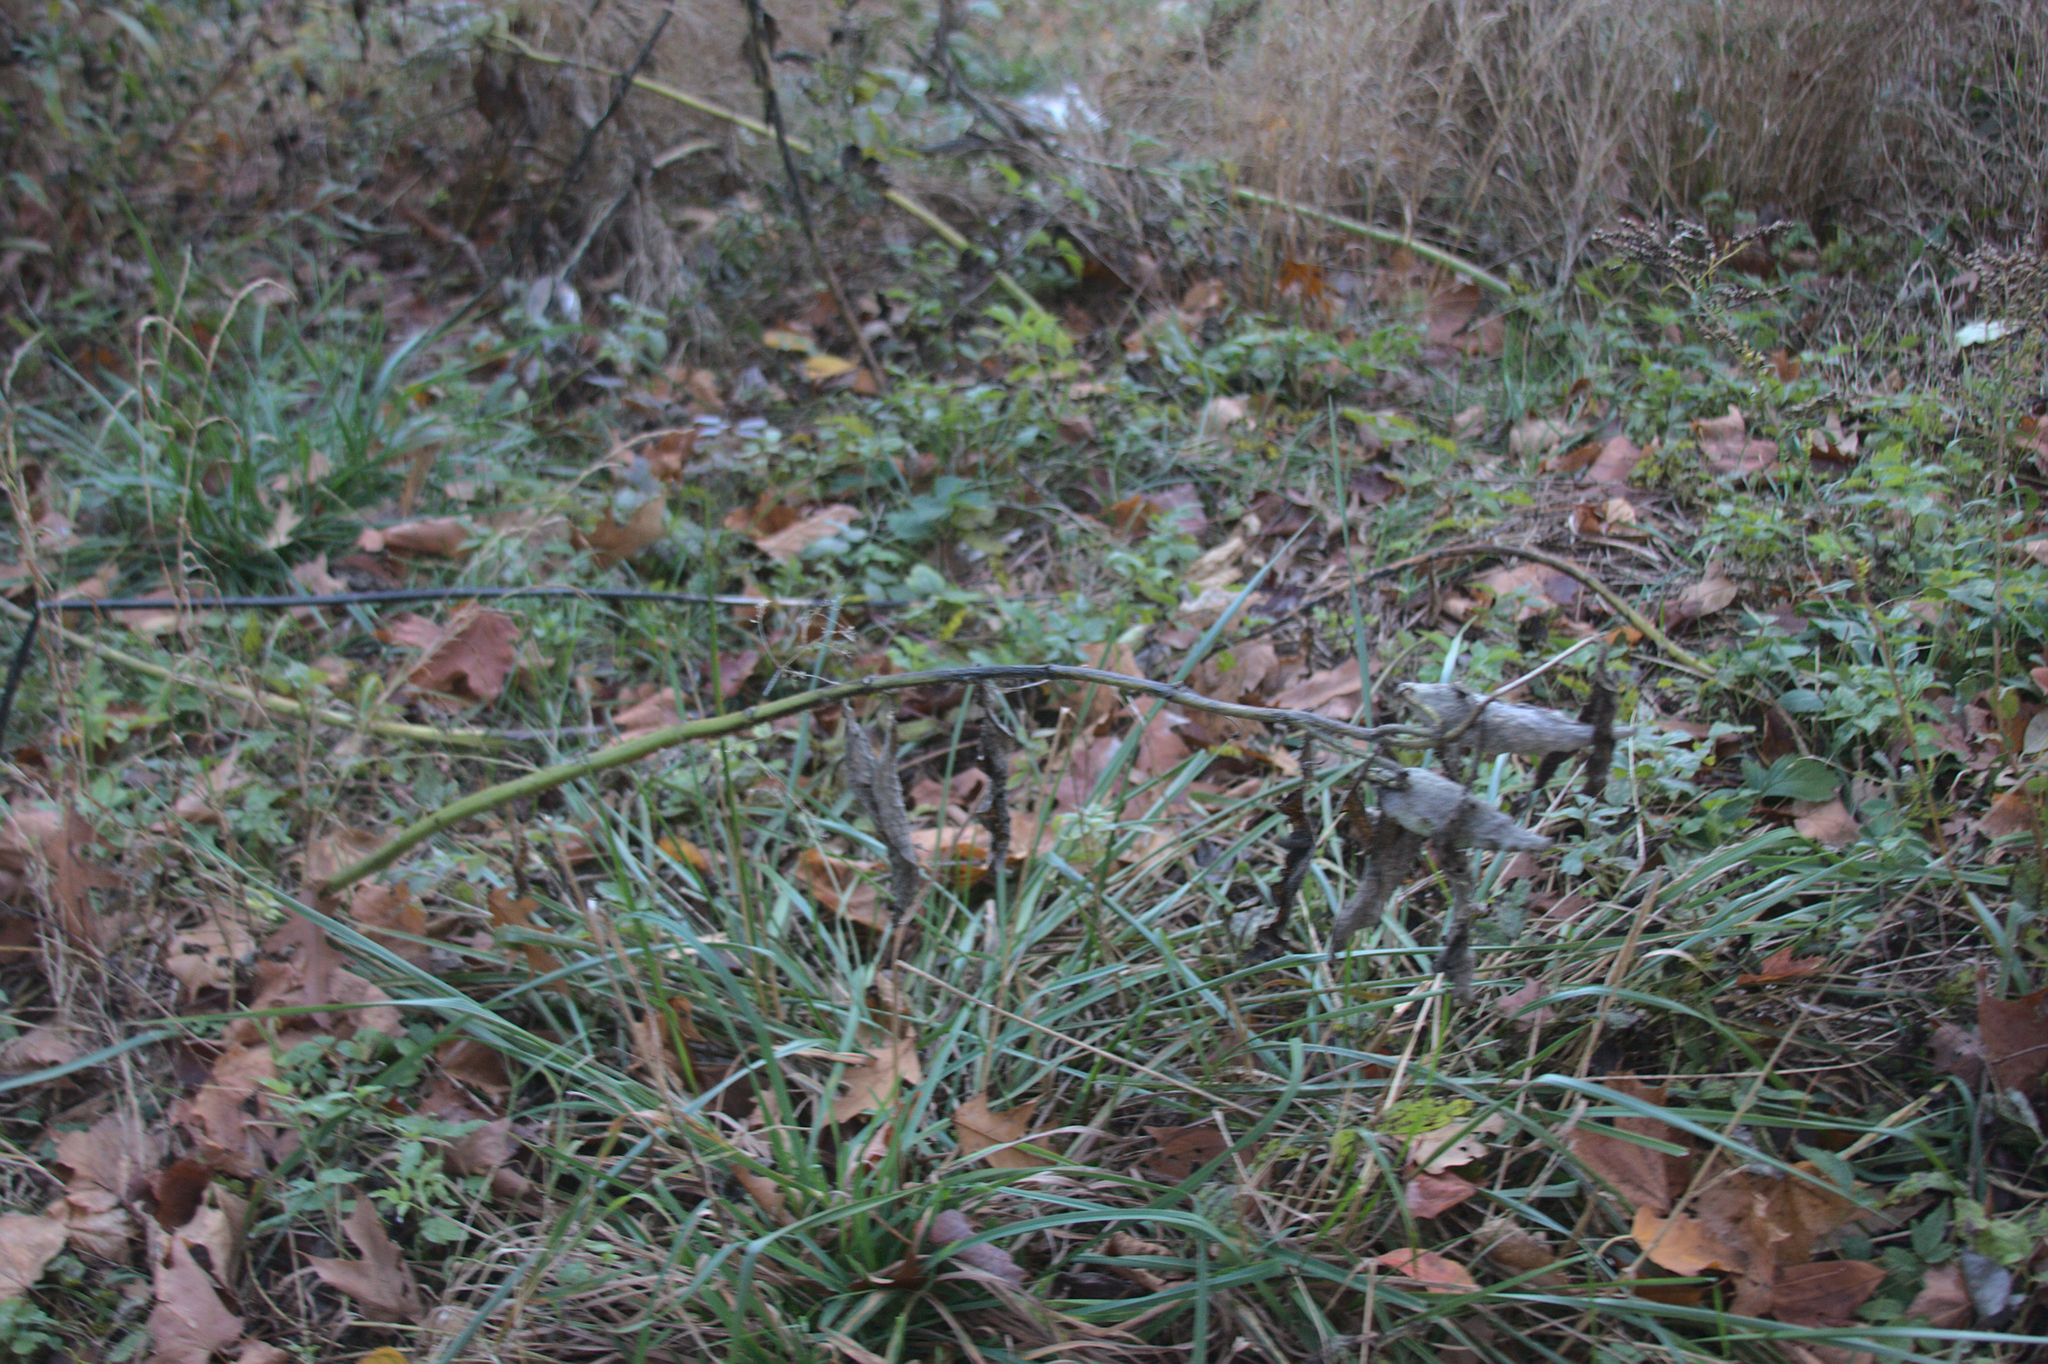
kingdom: Plantae
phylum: Tracheophyta
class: Magnoliopsida
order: Gentianales
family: Apocynaceae
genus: Asclepias
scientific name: Asclepias syriaca
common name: Common milkweed
